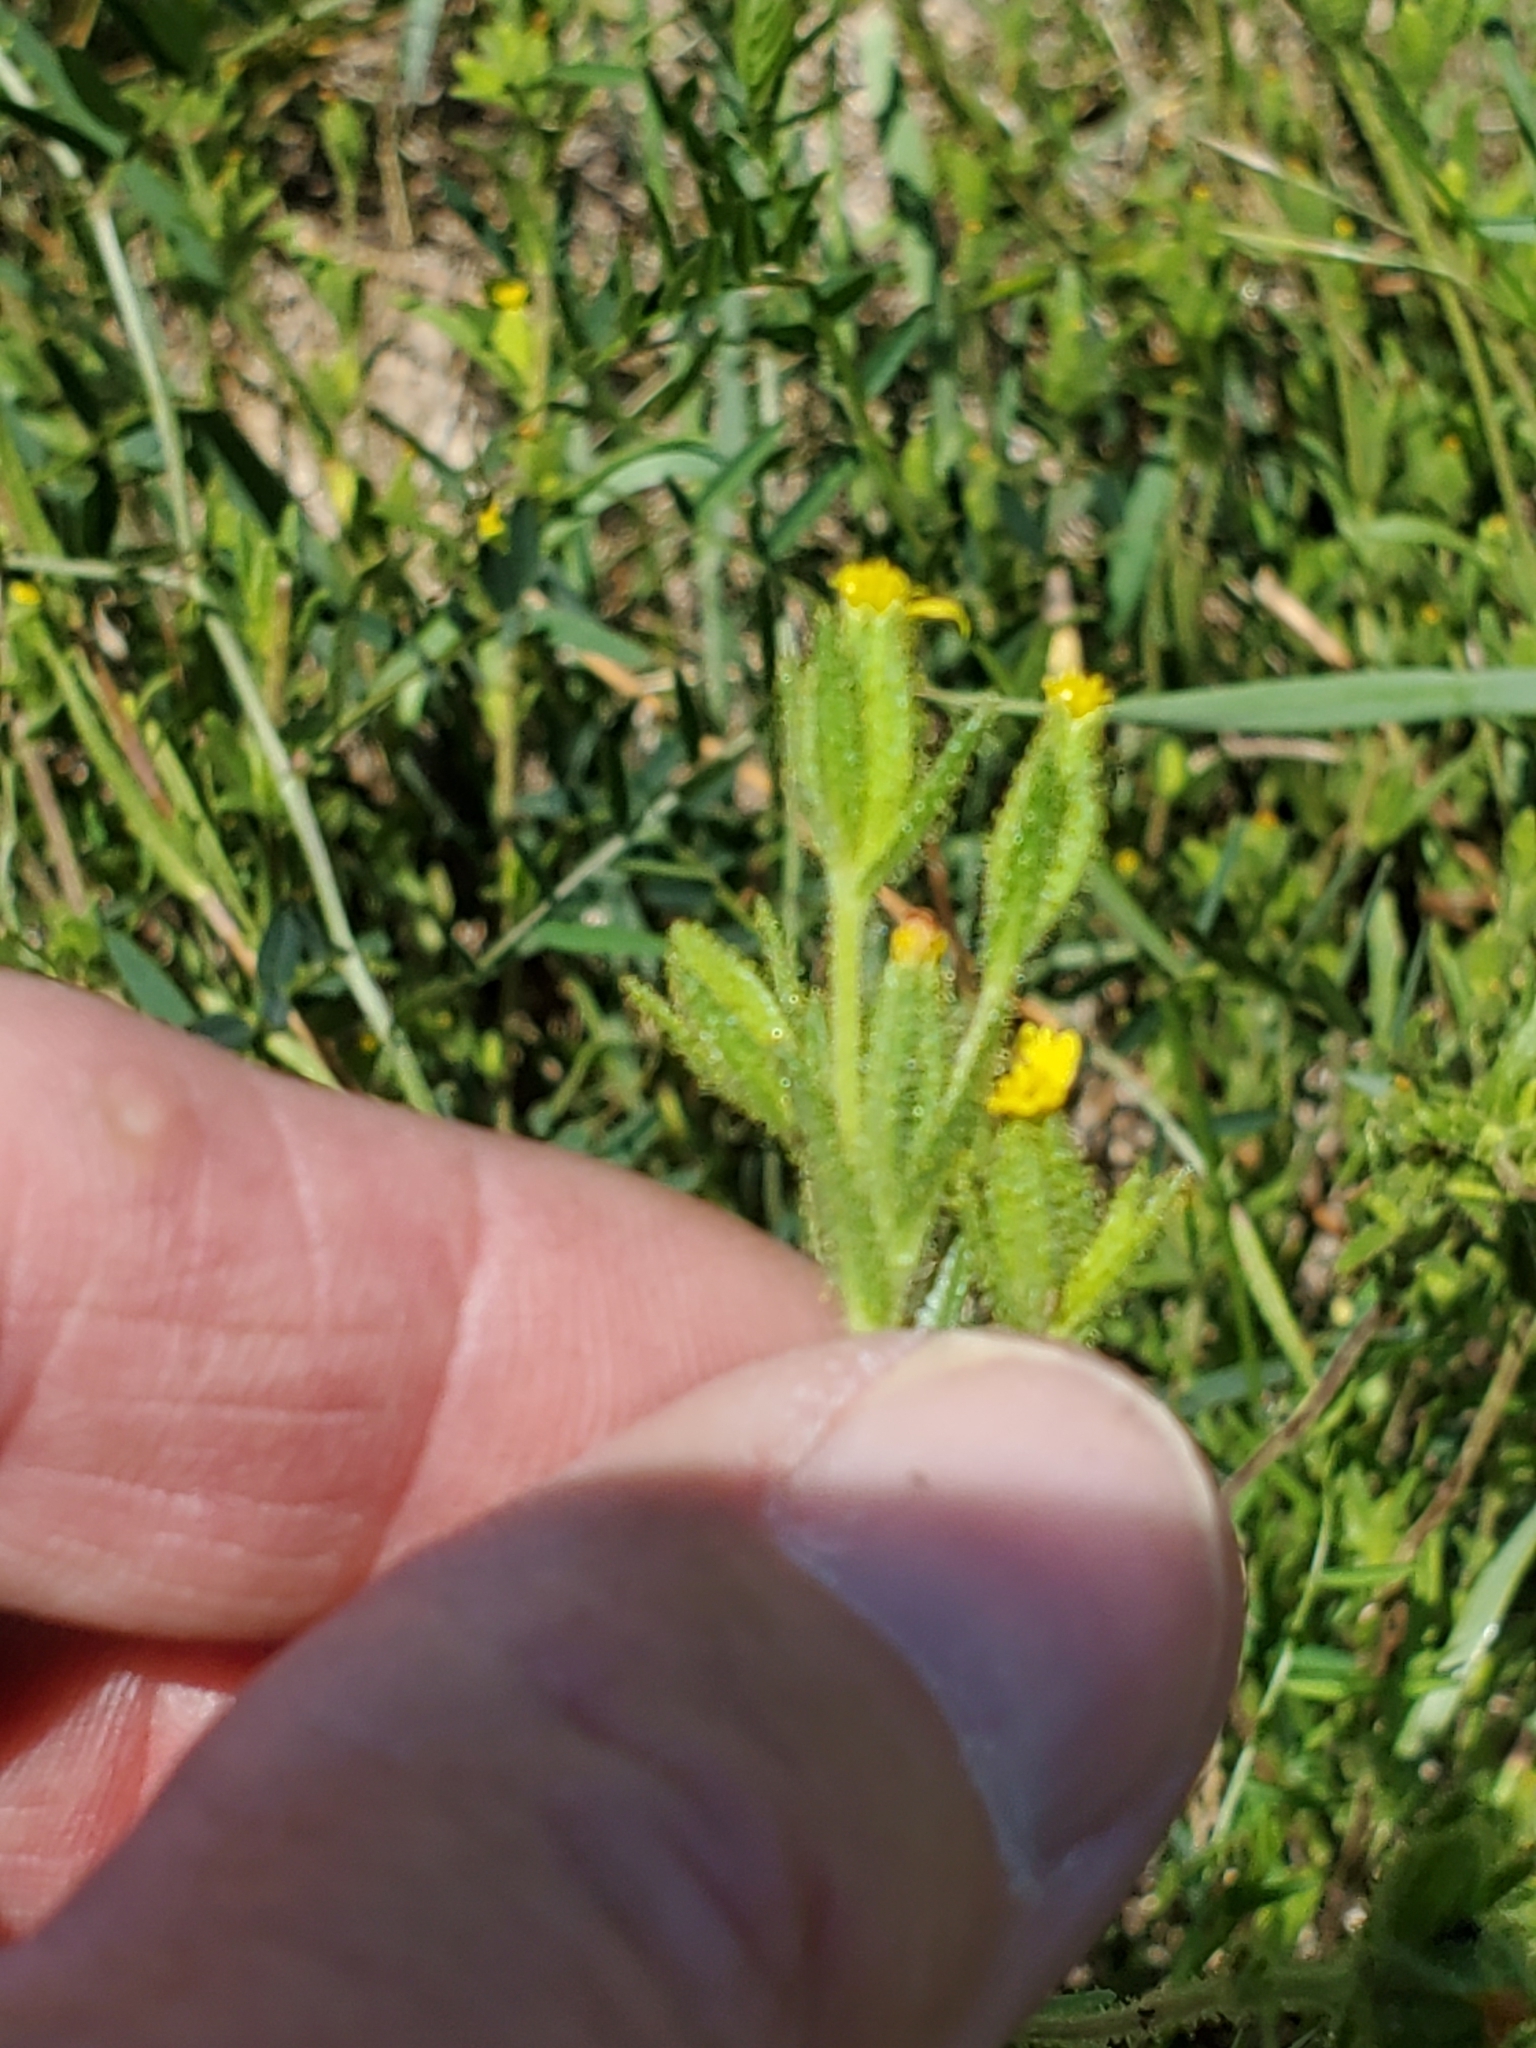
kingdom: Plantae
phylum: Tracheophyta
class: Magnoliopsida
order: Asterales
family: Asteraceae
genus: Madia
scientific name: Madia glomerata
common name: Mountain tarweed
